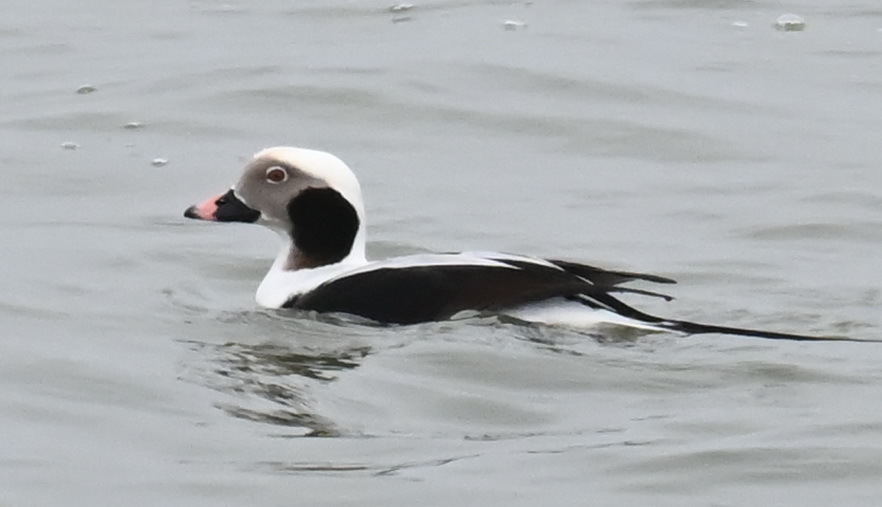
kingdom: Animalia
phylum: Chordata
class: Aves
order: Anseriformes
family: Anatidae
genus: Clangula
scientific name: Clangula hyemalis
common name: Long-tailed duck
